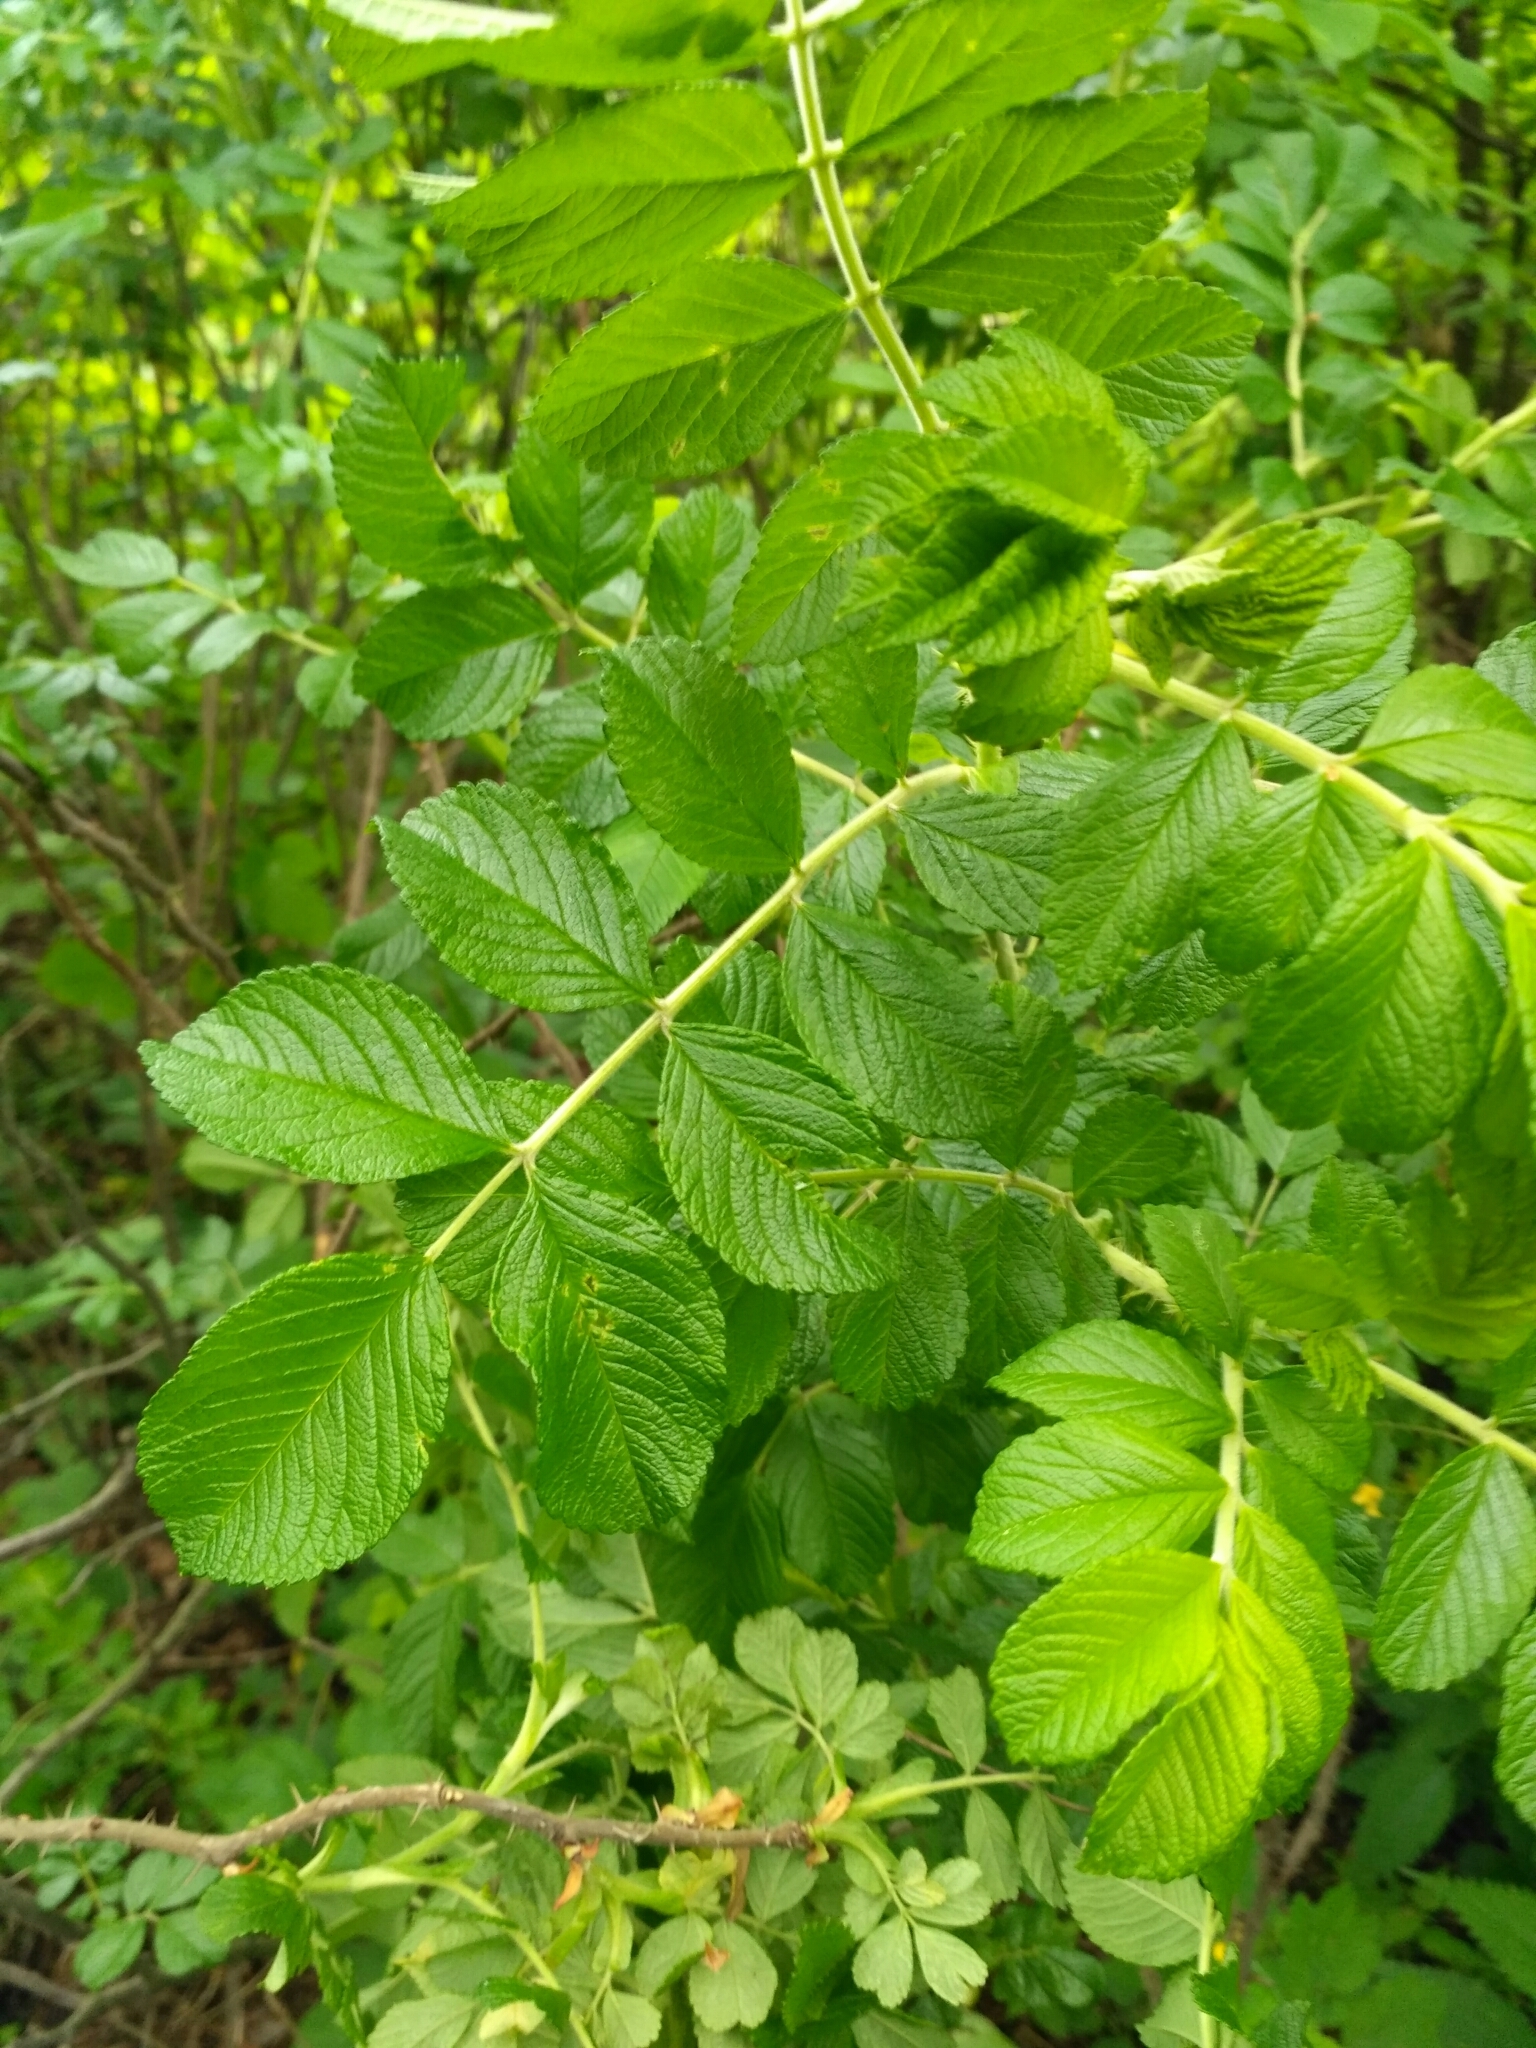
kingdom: Plantae
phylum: Tracheophyta
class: Magnoliopsida
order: Rosales
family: Rosaceae
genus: Rosa
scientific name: Rosa rugosa
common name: Japanese rose
